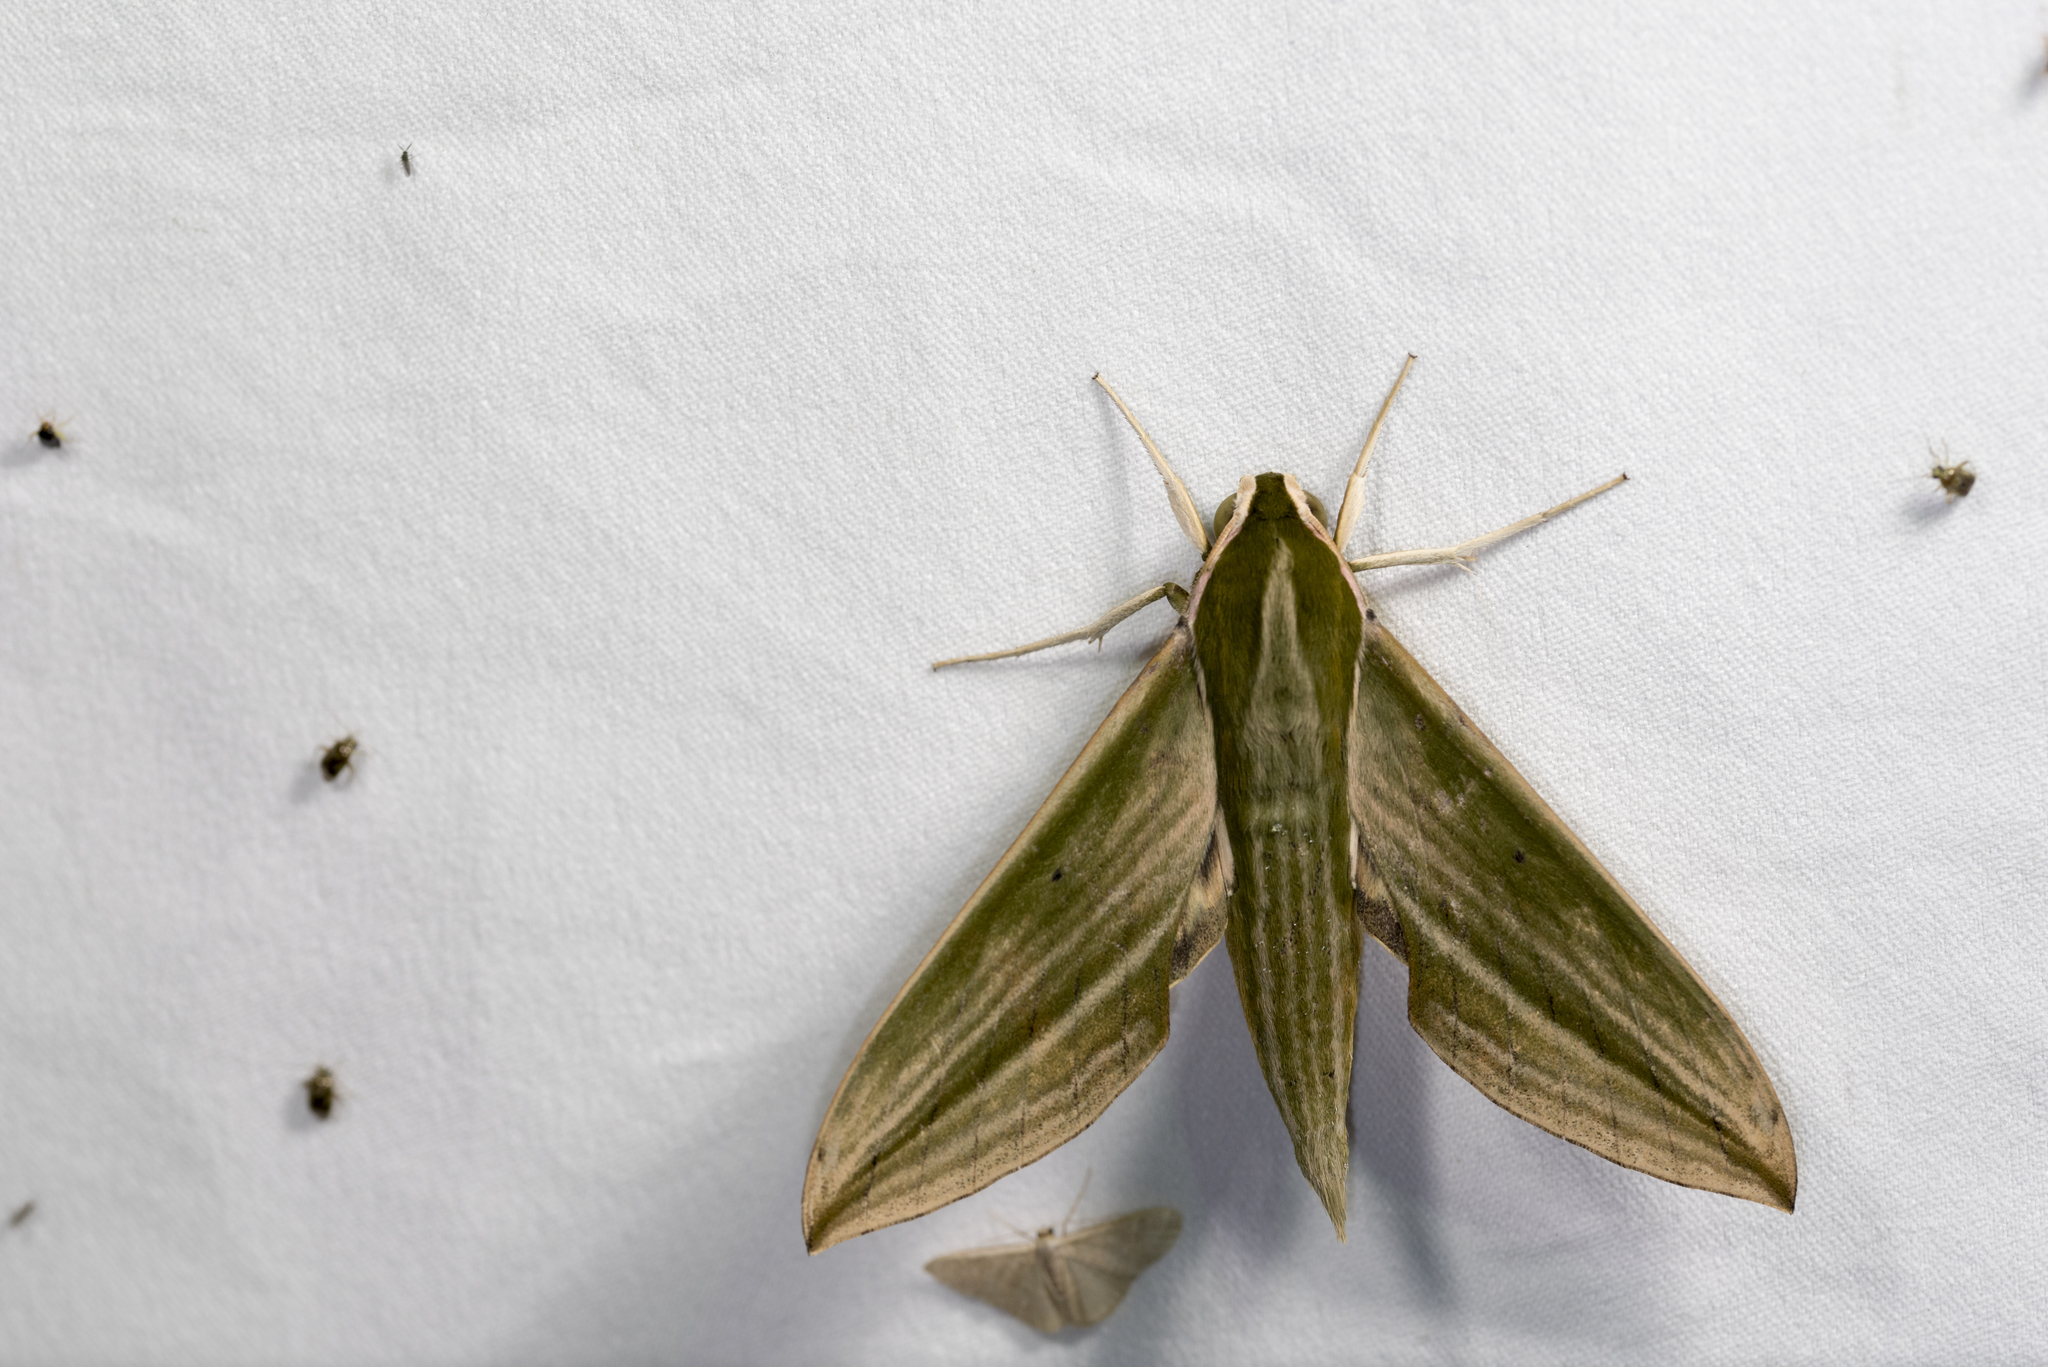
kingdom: Animalia
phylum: Arthropoda
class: Insecta
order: Lepidoptera
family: Sphingidae
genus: Cechetra
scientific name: Cechetra subangustata
